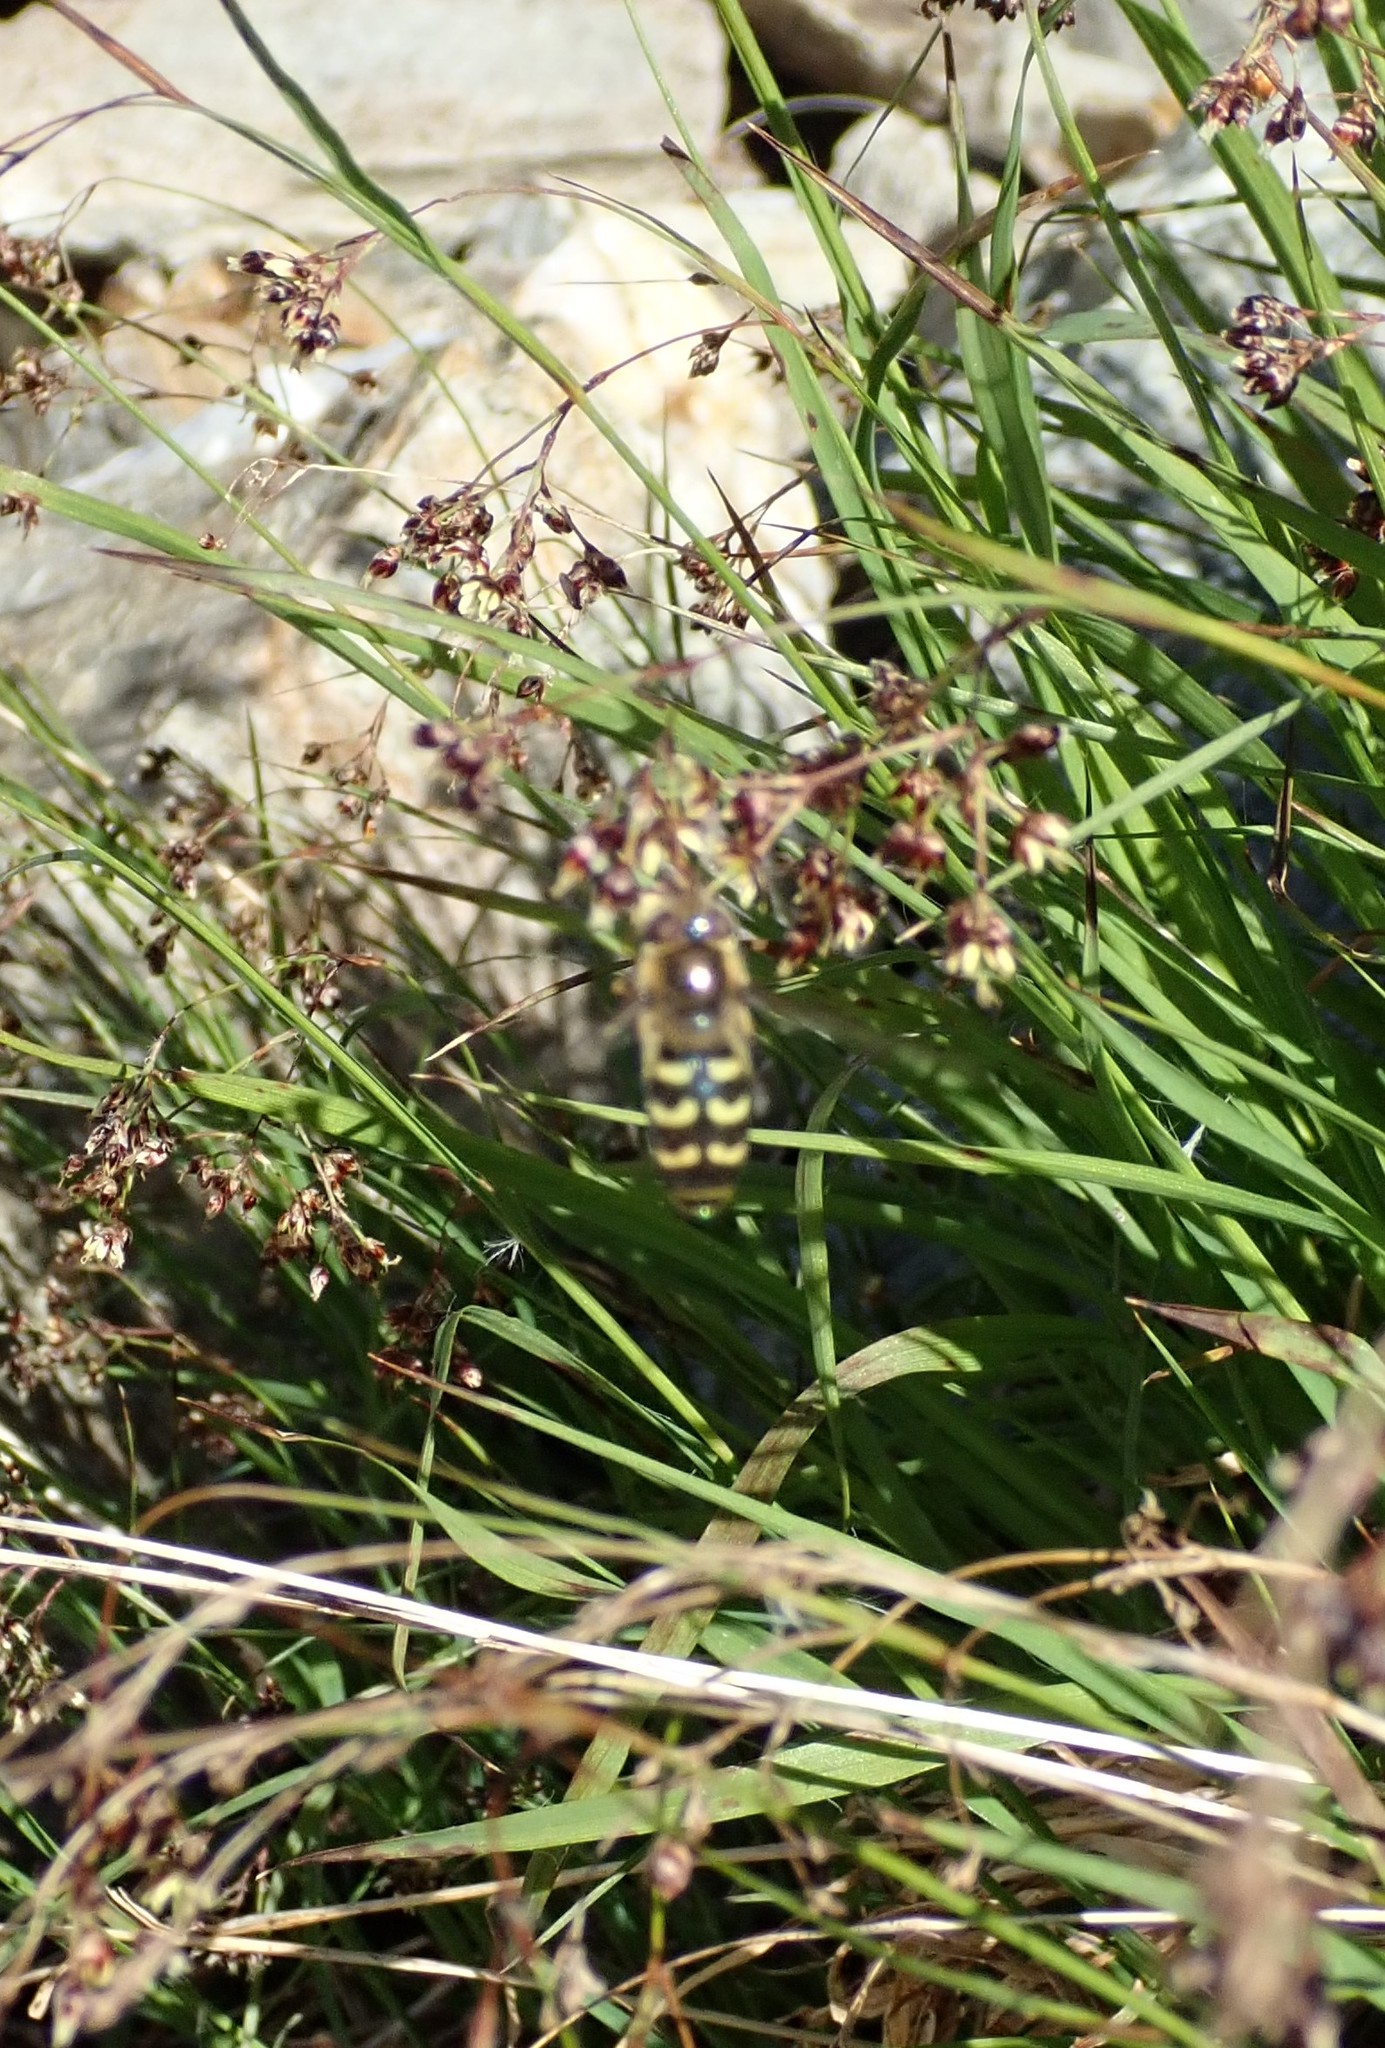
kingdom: Animalia
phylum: Arthropoda
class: Insecta
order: Diptera
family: Syrphidae
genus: Scaeva
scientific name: Scaeva selenitica
